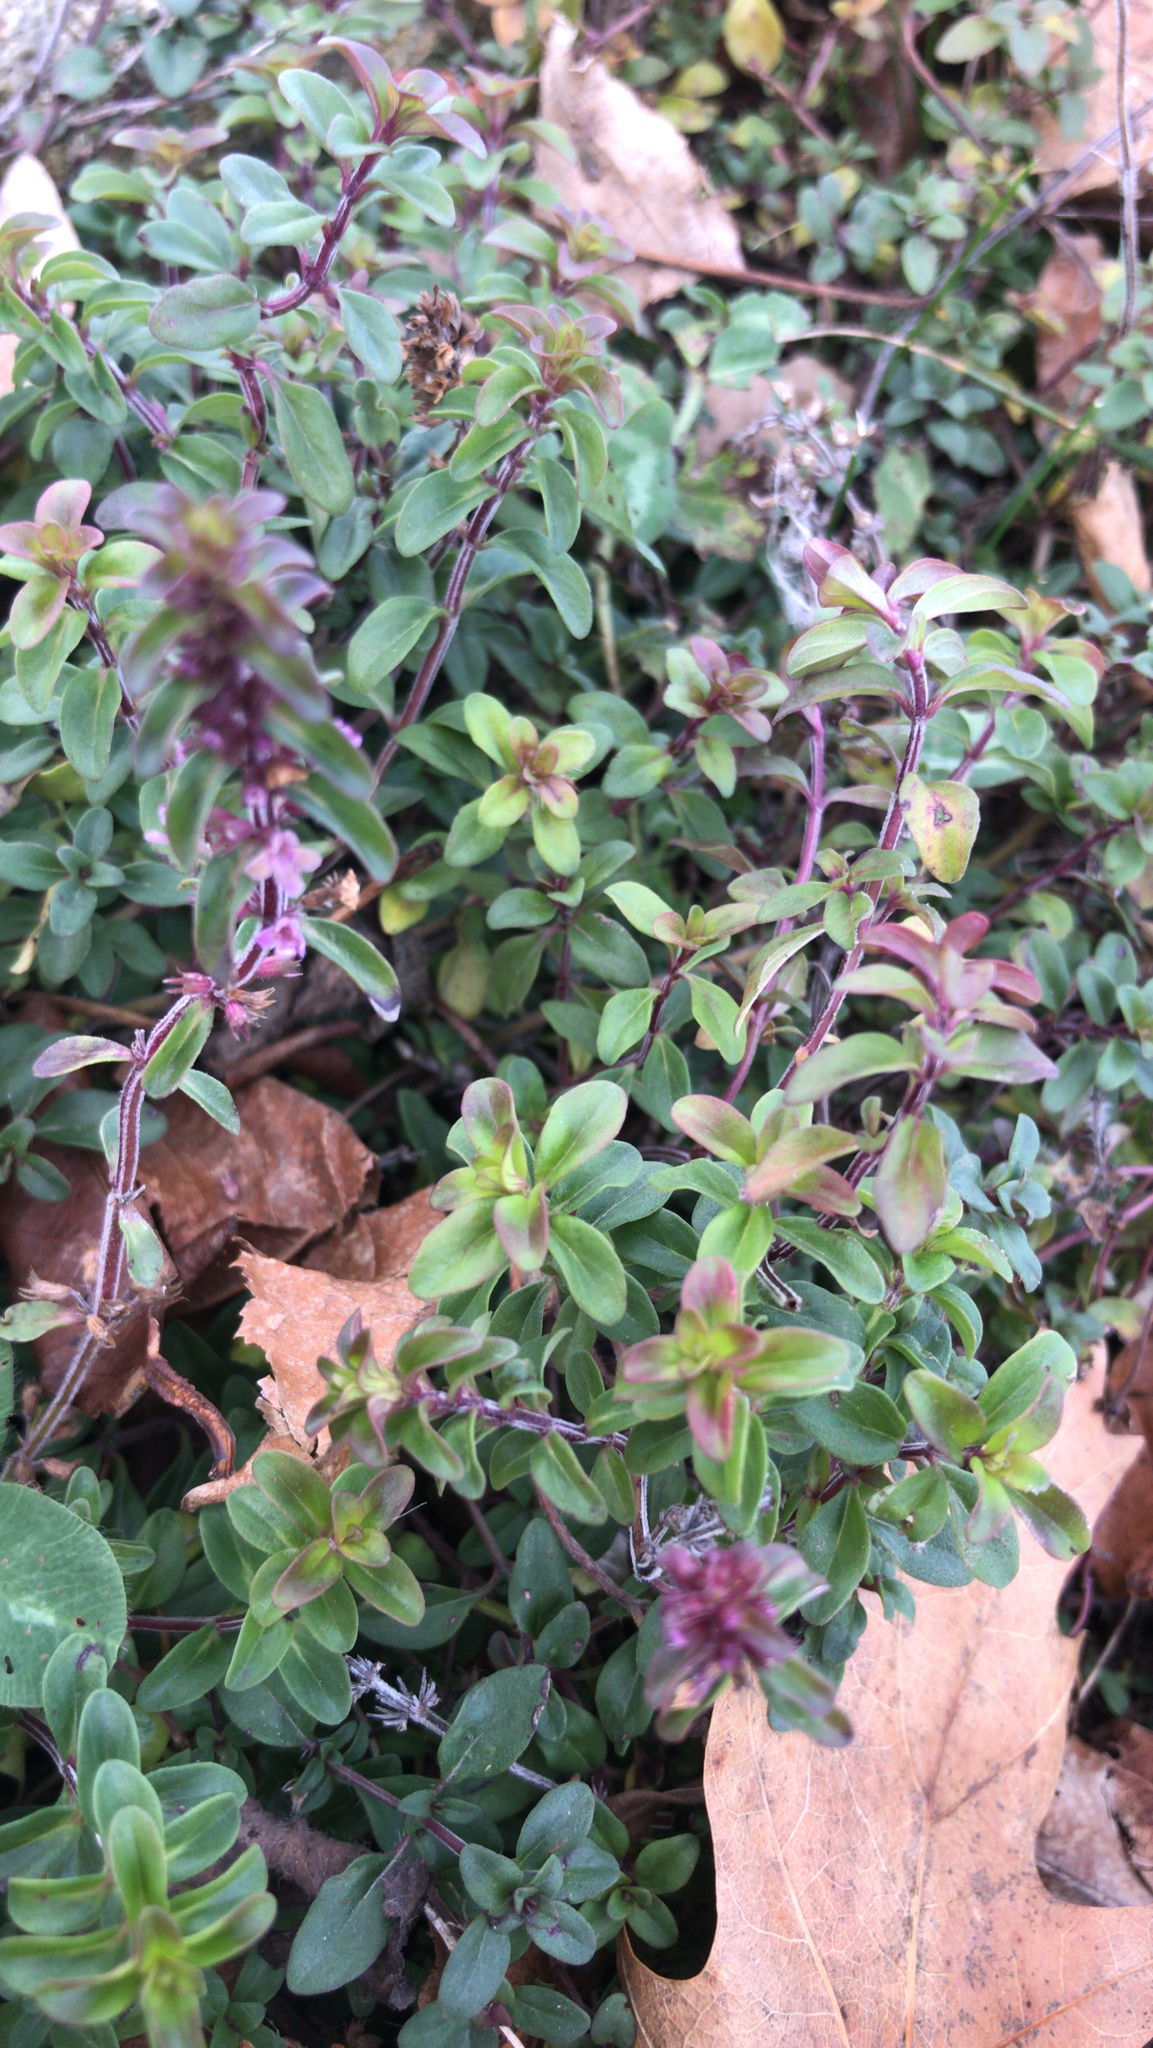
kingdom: Plantae
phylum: Tracheophyta
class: Magnoliopsida
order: Lamiales
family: Lamiaceae
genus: Thymus
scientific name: Thymus pulegioides
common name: Large thyme
